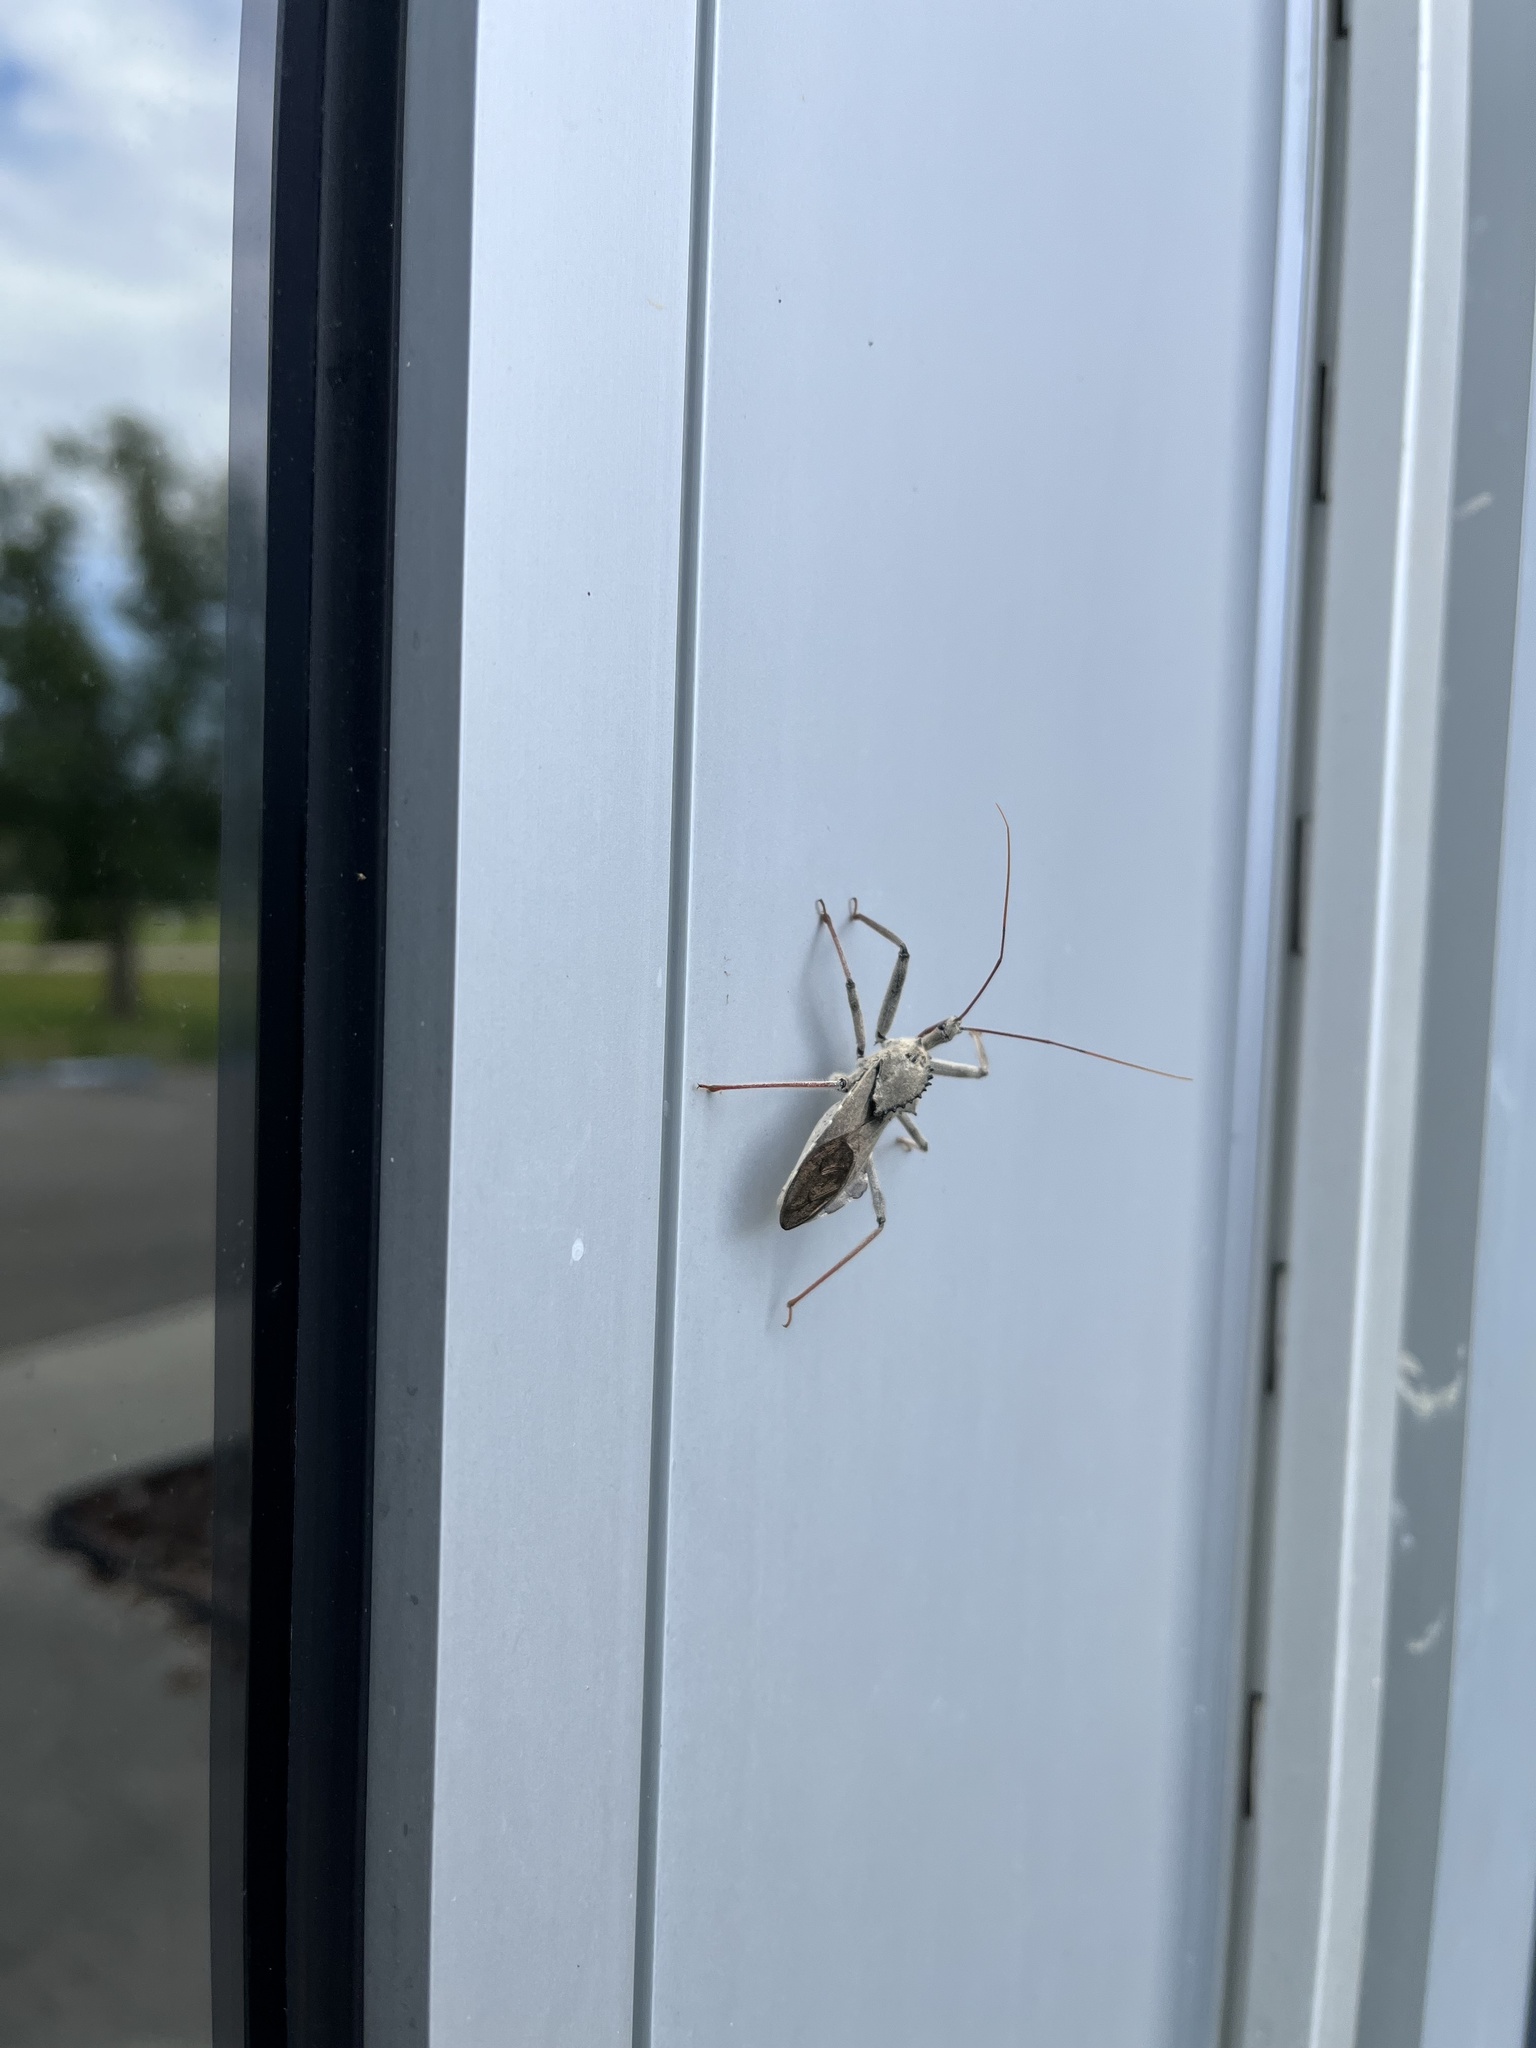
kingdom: Animalia
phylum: Arthropoda
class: Insecta
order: Hemiptera
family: Reduviidae
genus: Arilus
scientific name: Arilus cristatus
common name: North american wheel bug
